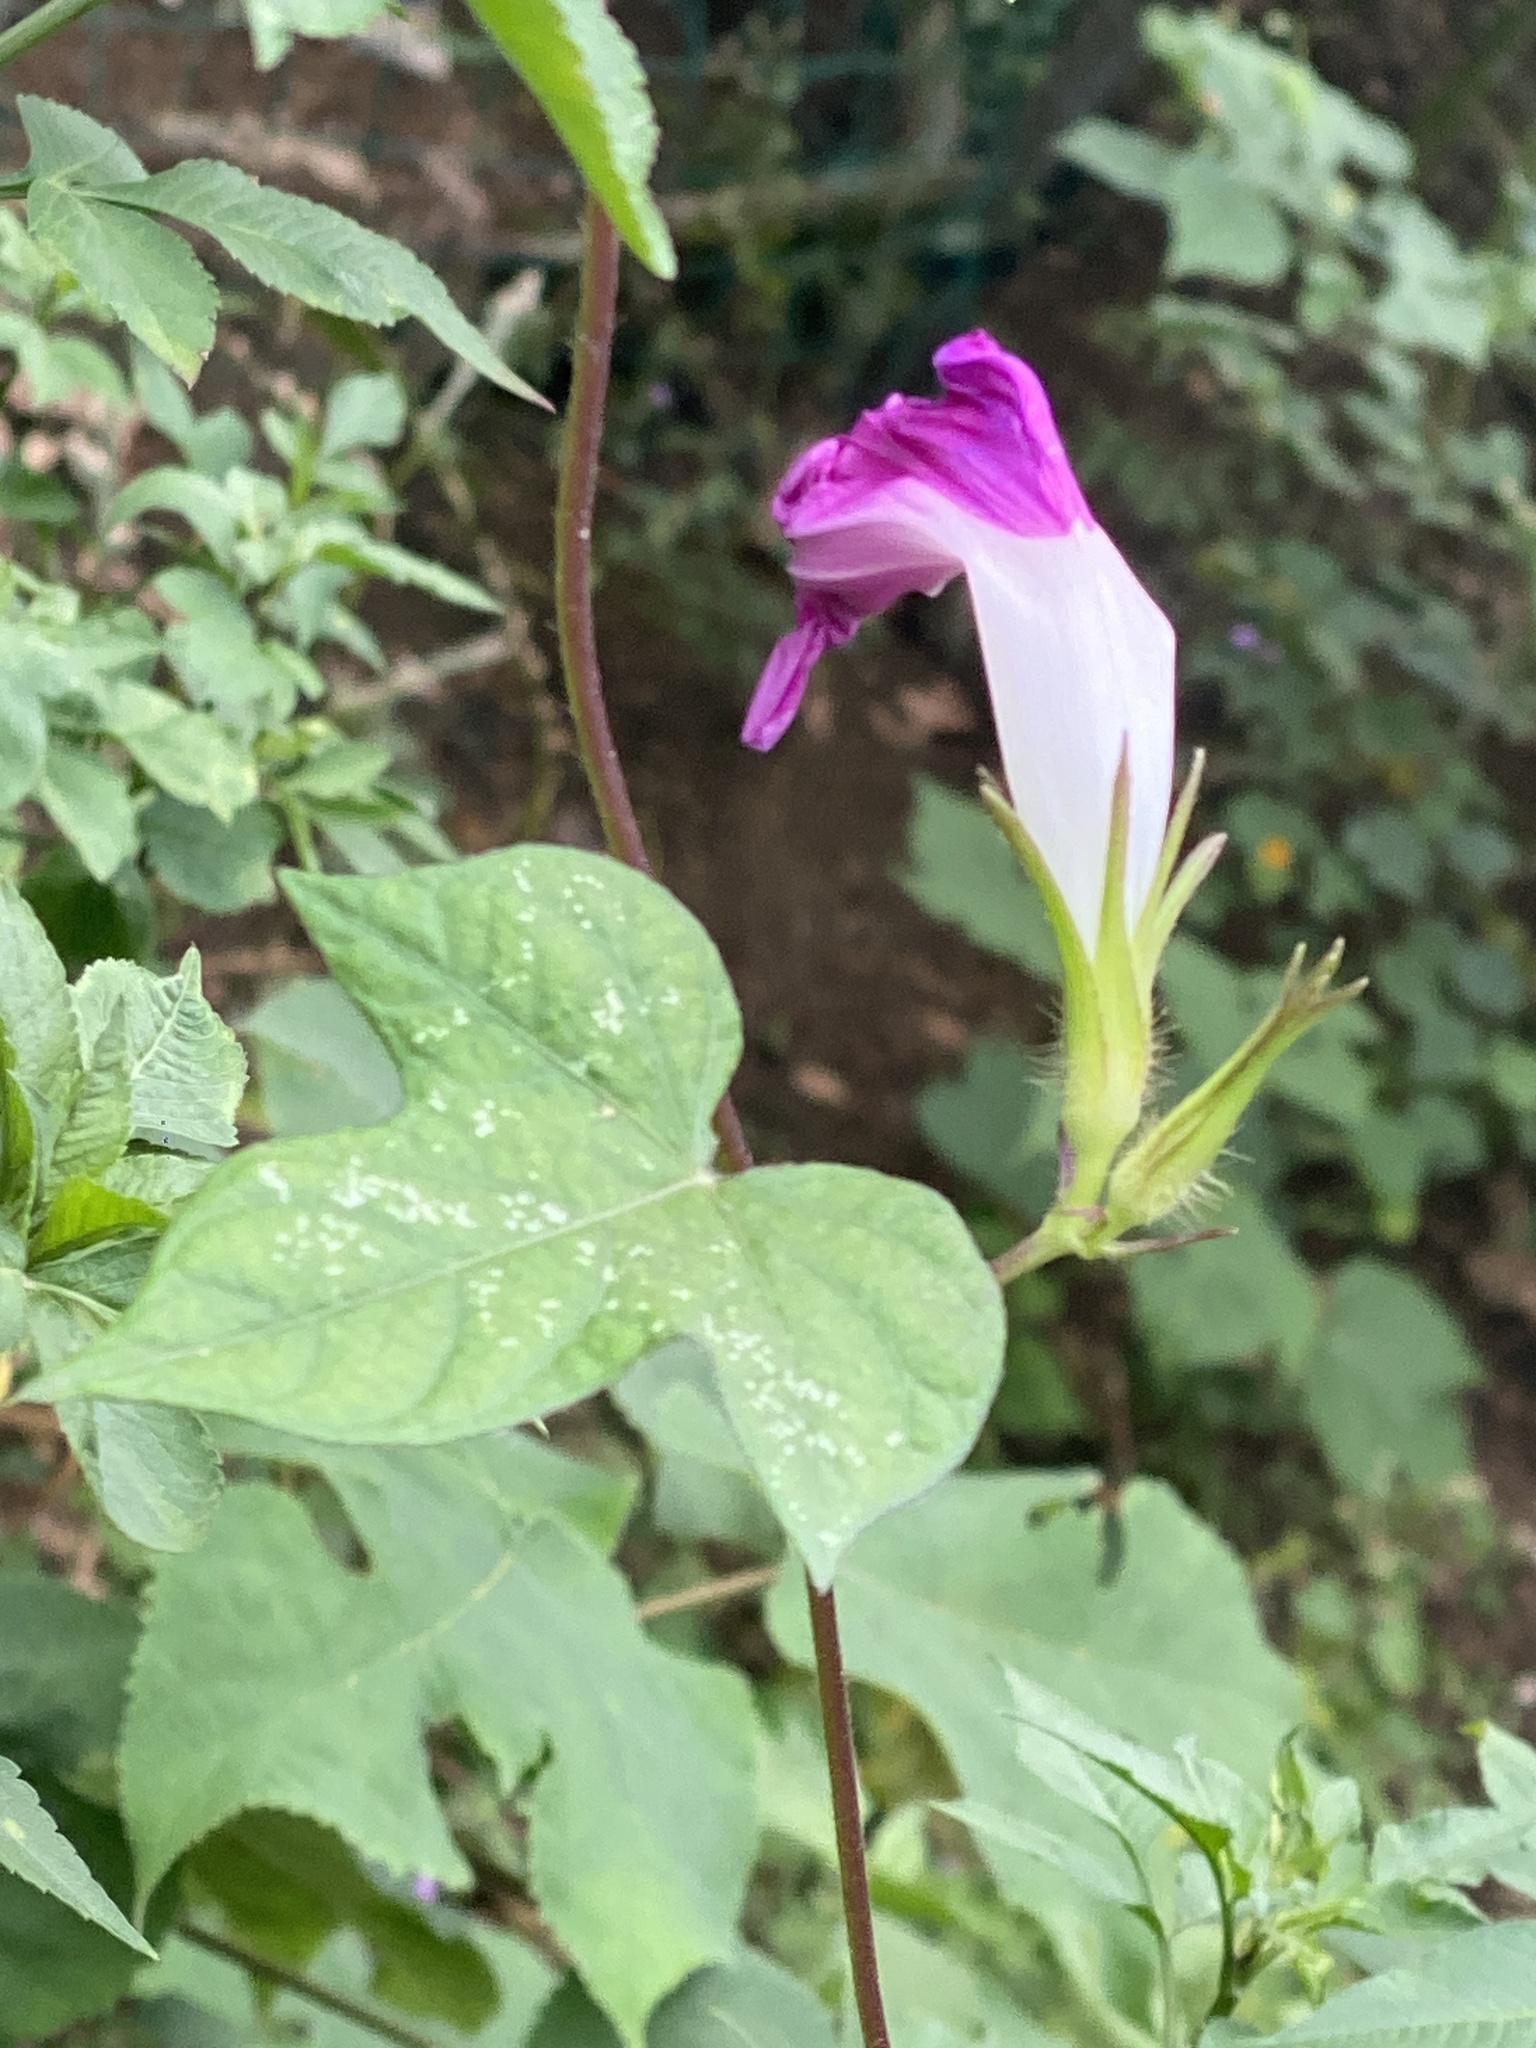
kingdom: Plantae
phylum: Tracheophyta
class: Magnoliopsida
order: Solanales
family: Convolvulaceae
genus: Ipomoea
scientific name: Ipomoea nil
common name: Japanese morning-glory
